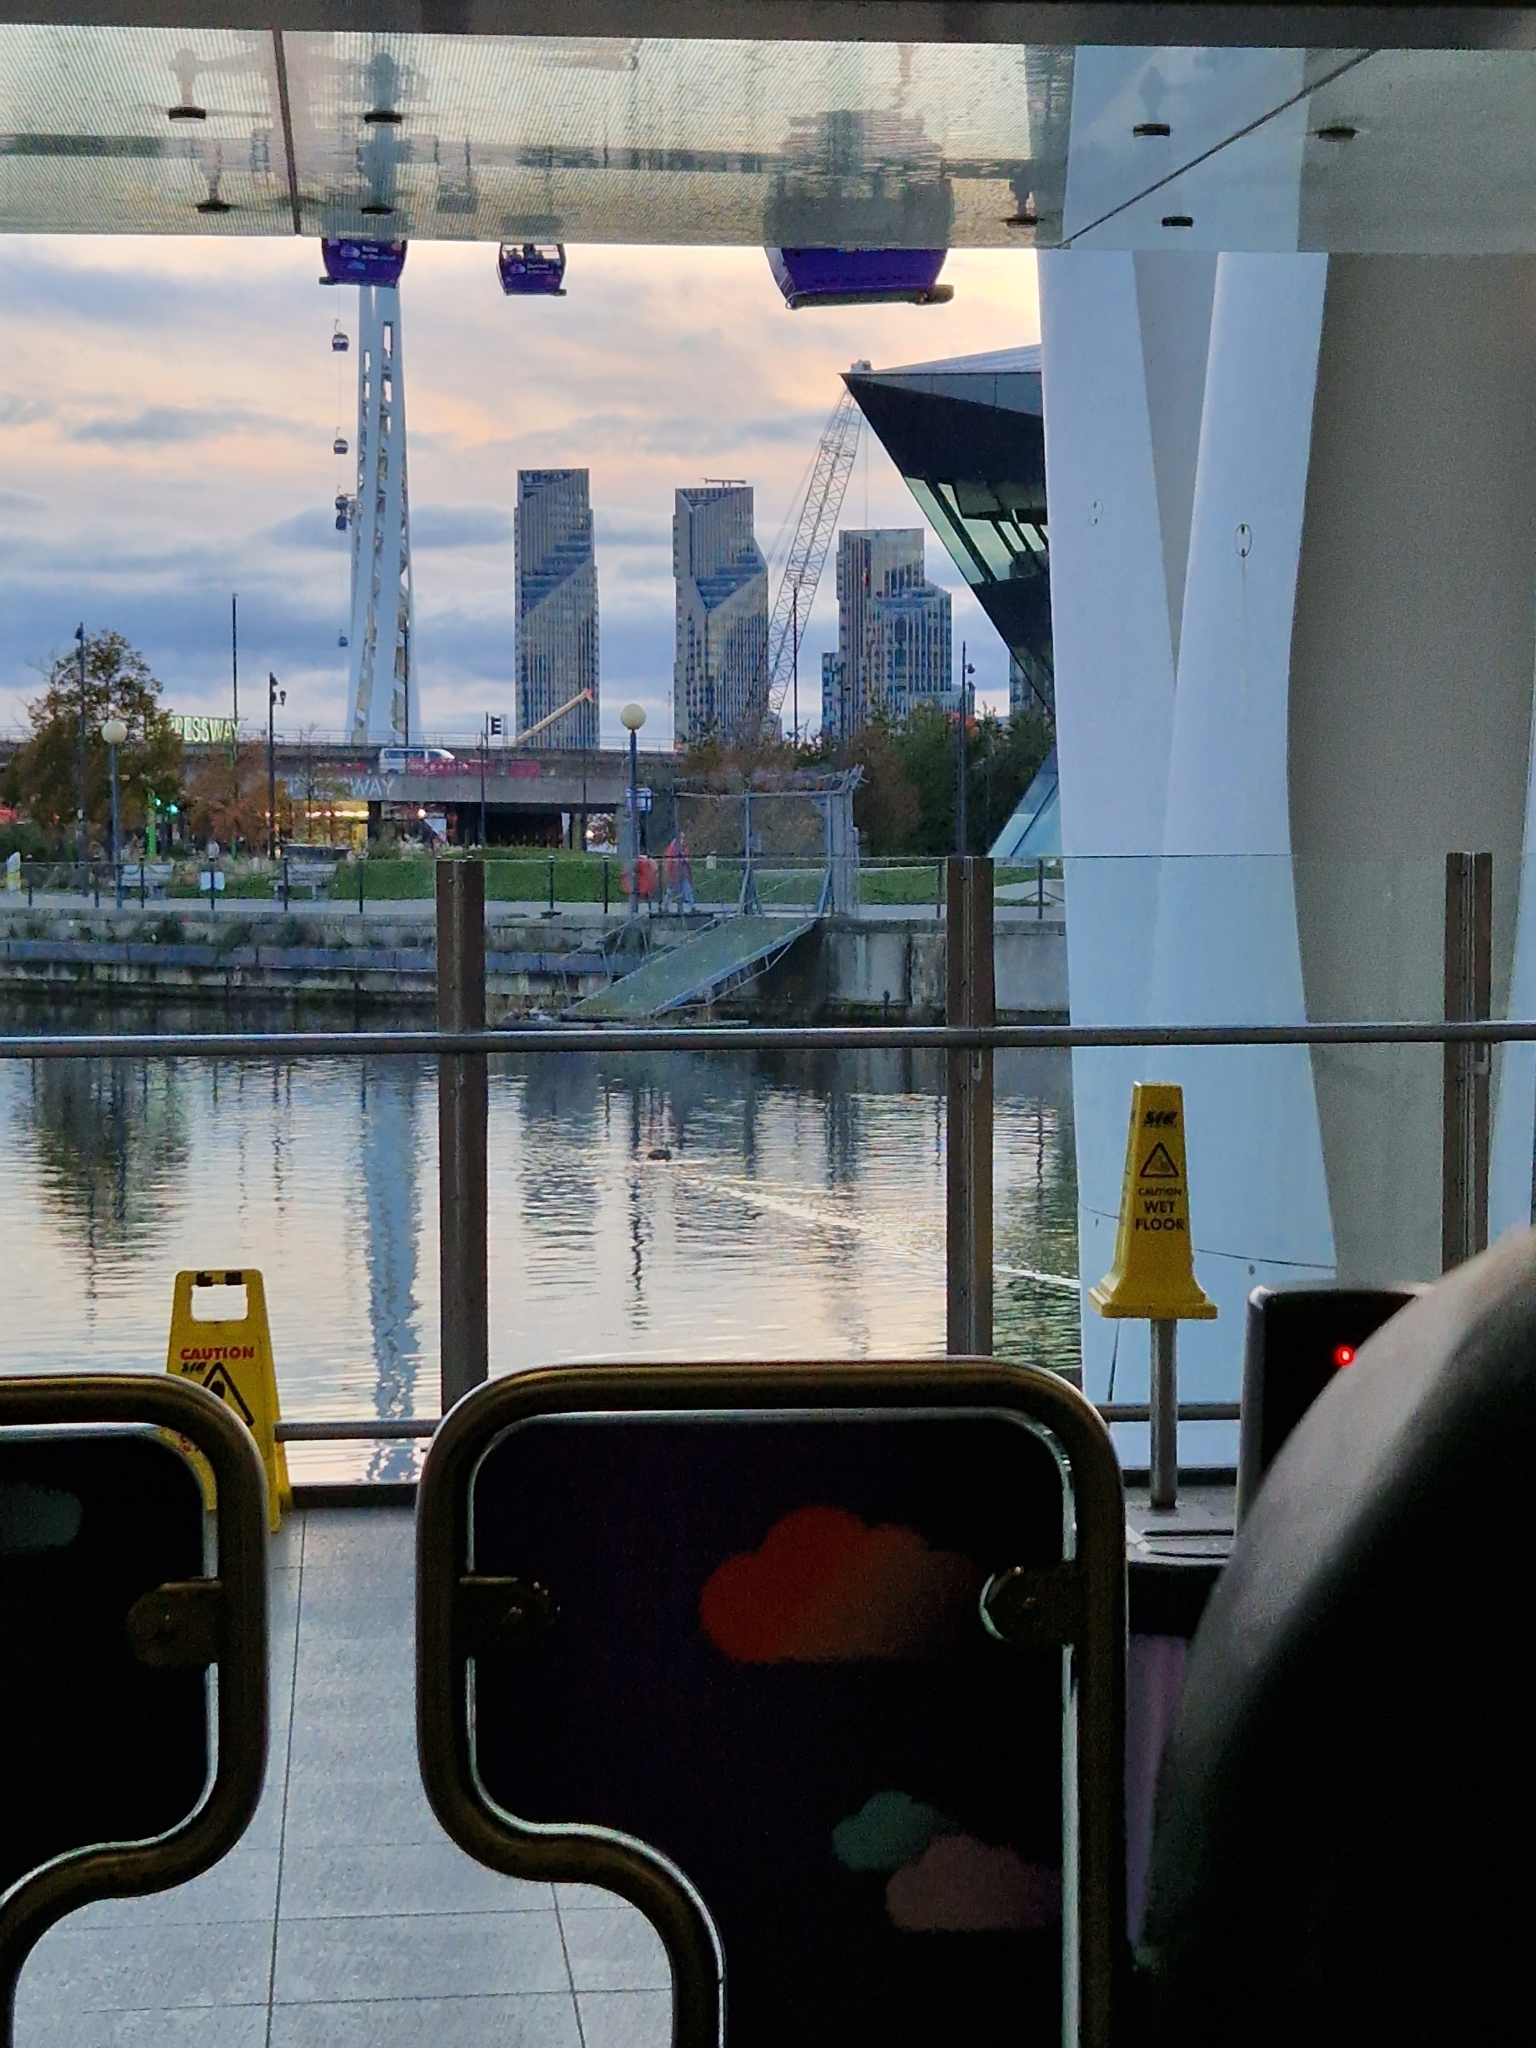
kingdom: Animalia
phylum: Chordata
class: Aves
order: Podicipediformes
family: Podicipedidae
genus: Podiceps
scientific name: Podiceps cristatus
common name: Great crested grebe
